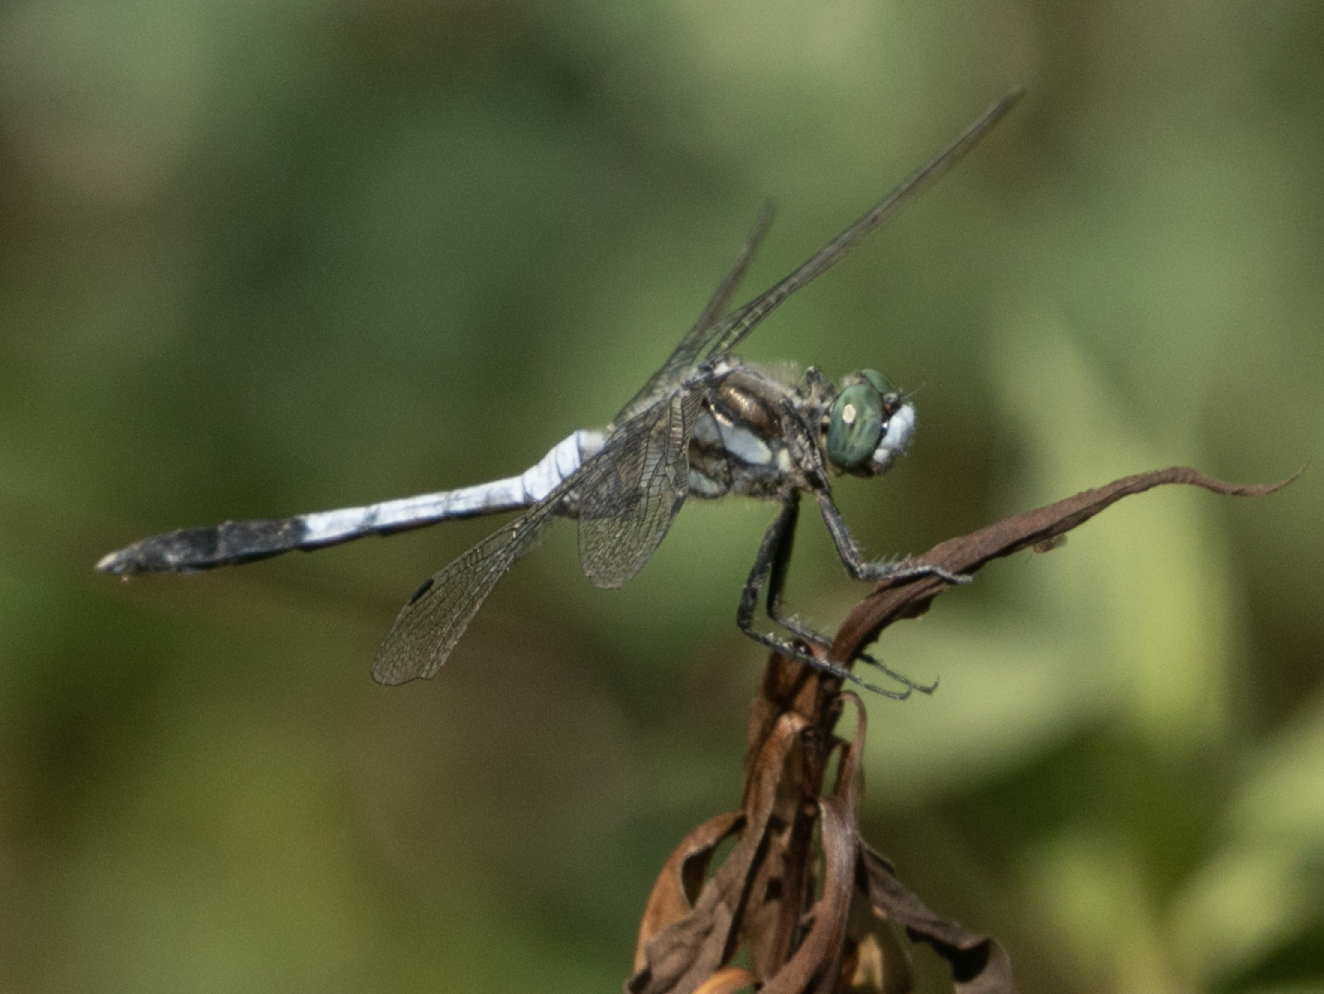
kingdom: Animalia
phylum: Arthropoda
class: Insecta
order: Odonata
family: Libellulidae
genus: Orthetrum
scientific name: Orthetrum albistylum
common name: White-tailed skimmer
